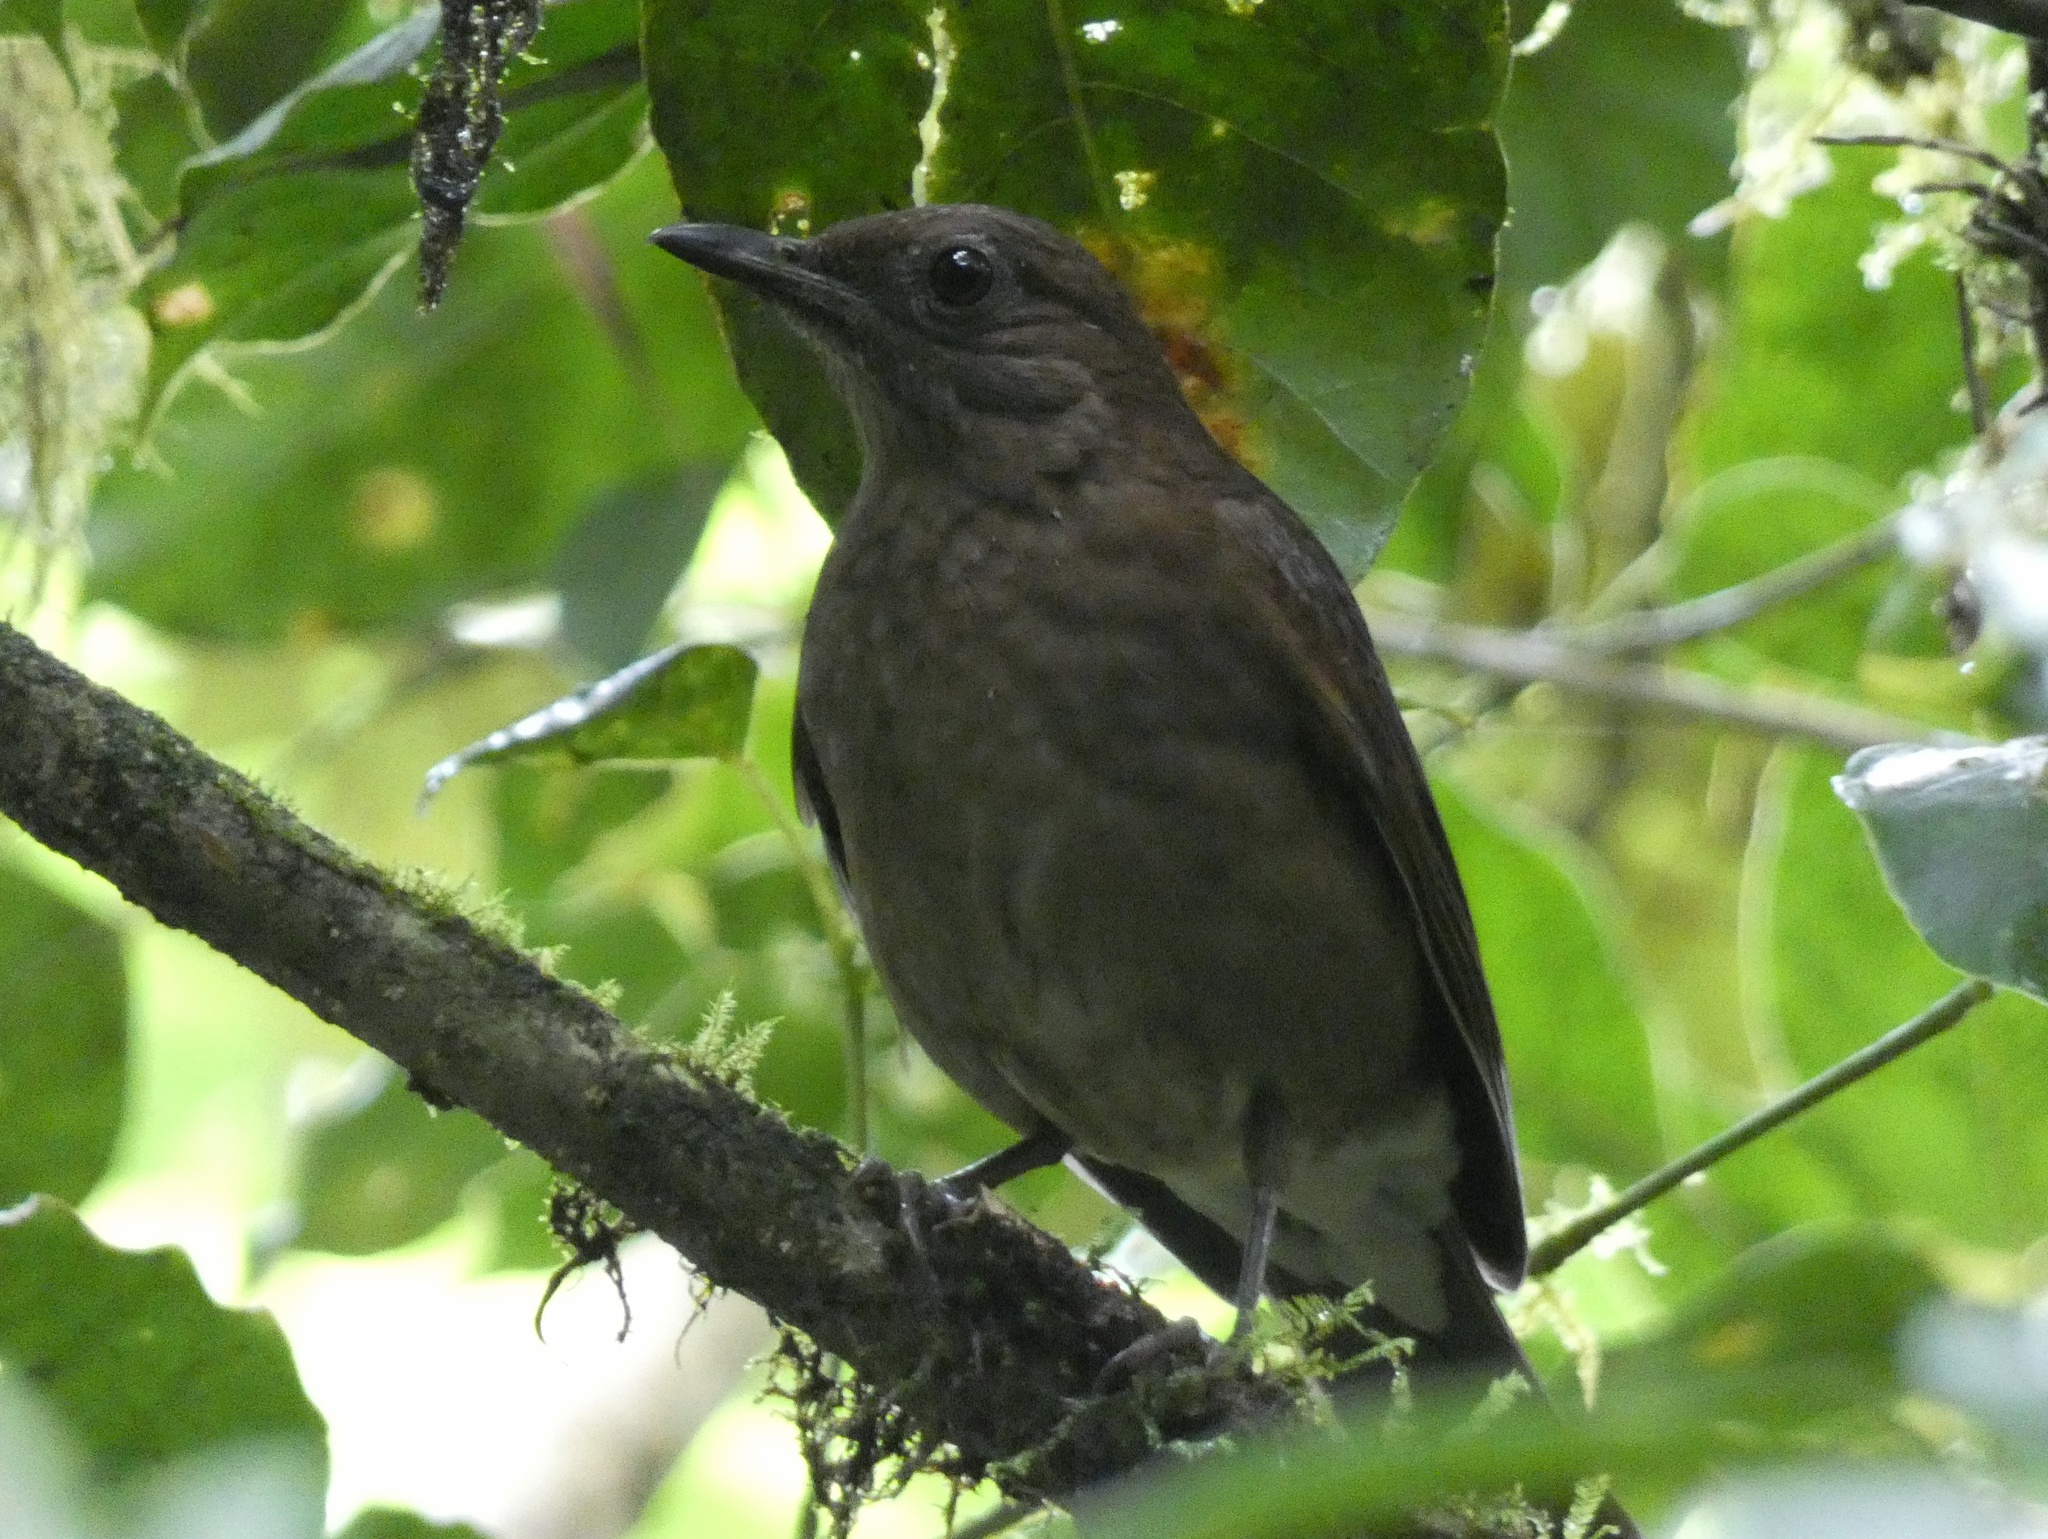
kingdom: Animalia
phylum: Chordata
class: Aves
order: Passeriformes
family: Turdidae
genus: Turdus
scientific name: Turdus plebejus
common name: Mountain thrush
